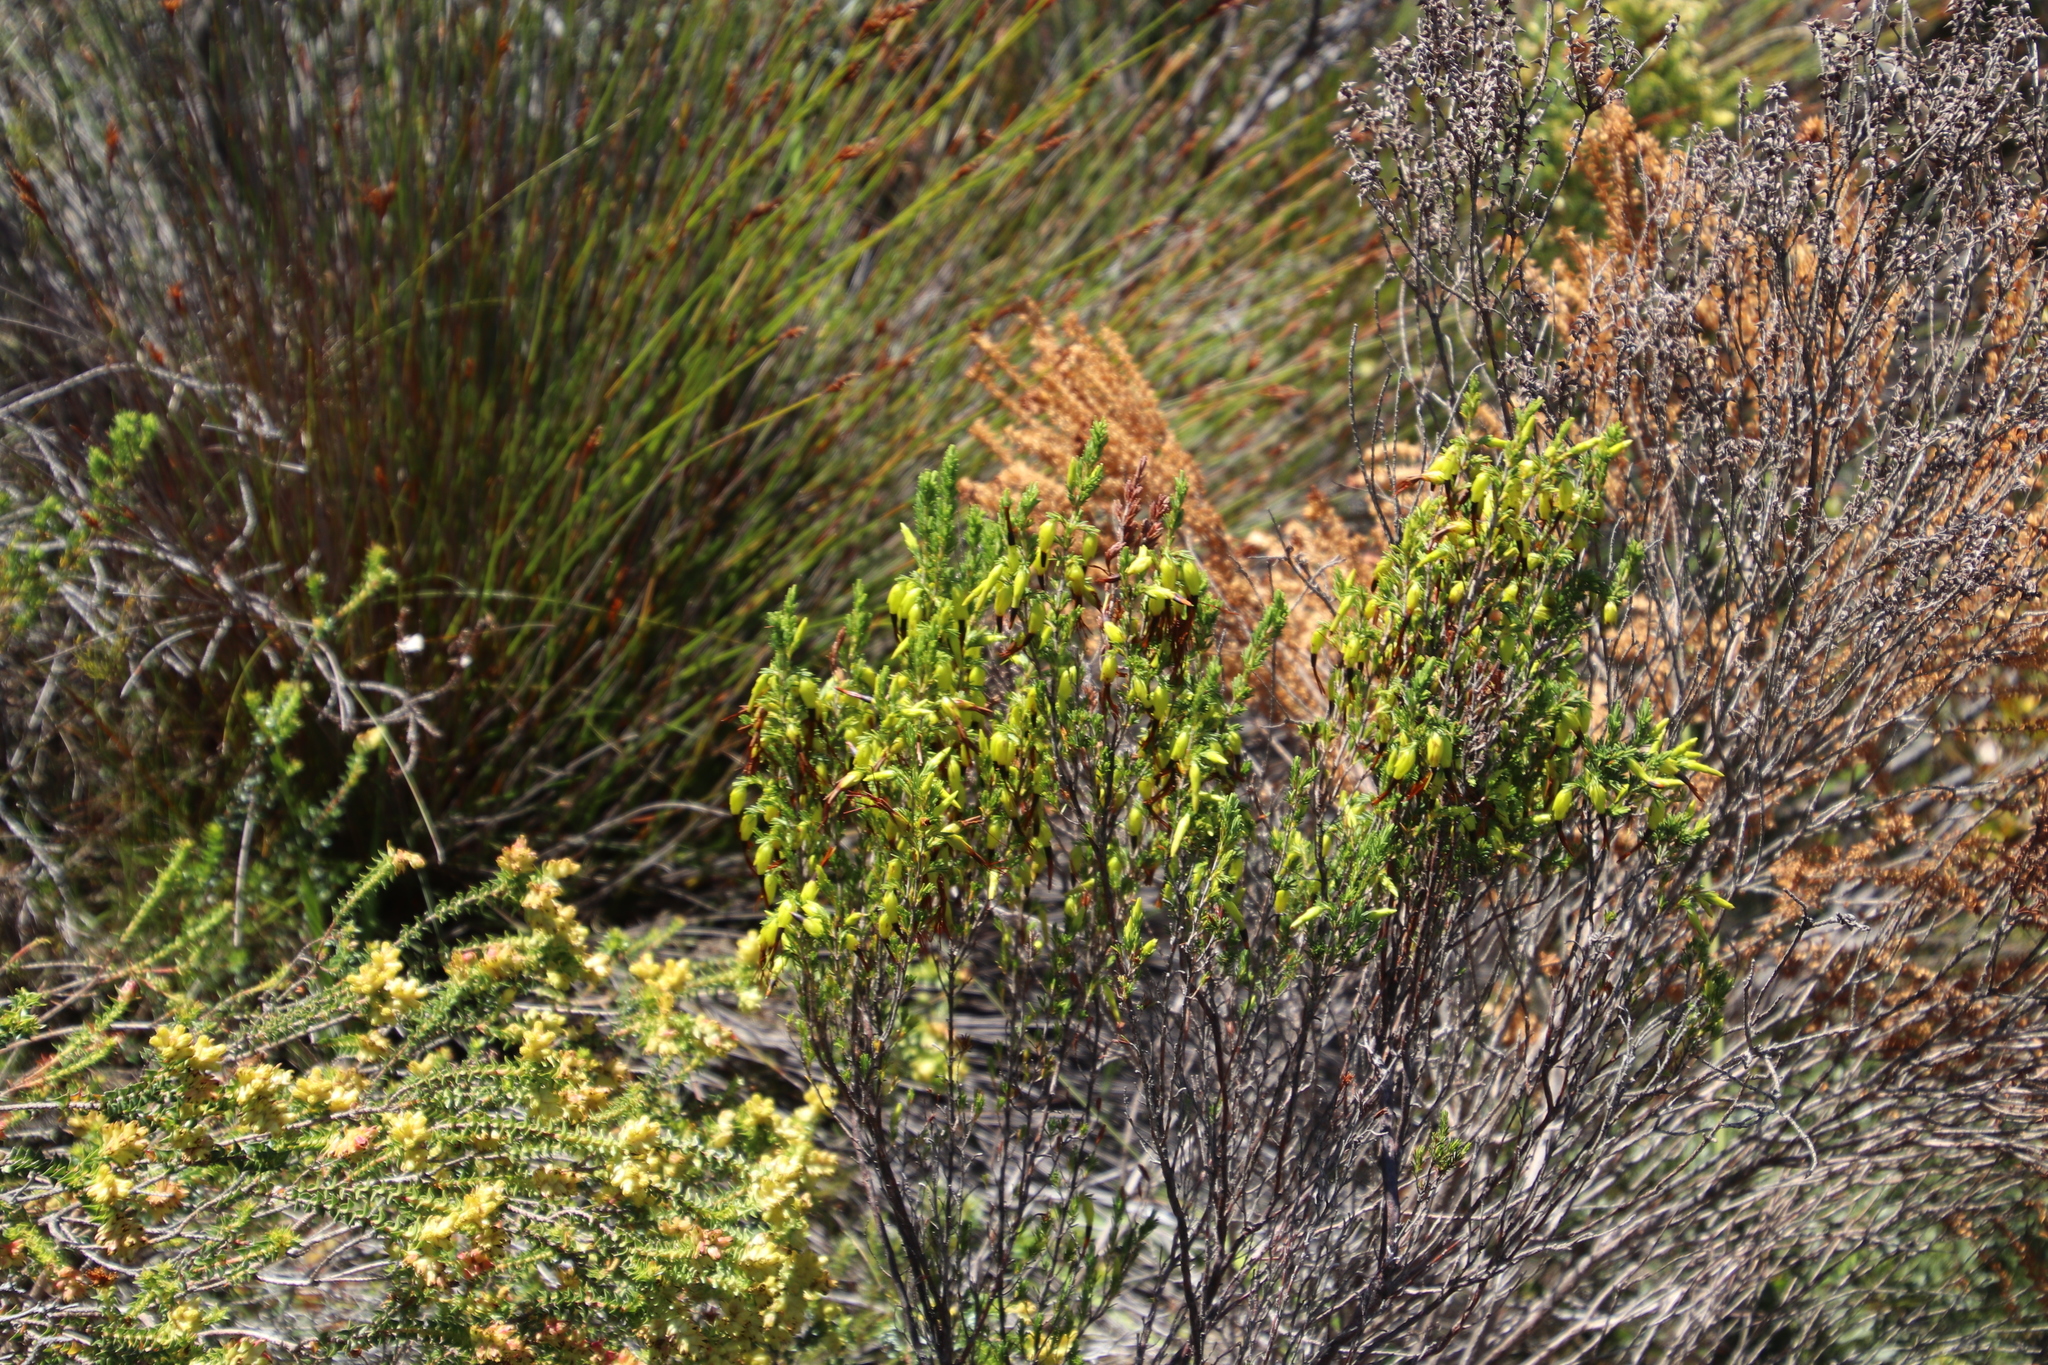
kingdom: Plantae
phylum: Tracheophyta
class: Magnoliopsida
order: Ericales
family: Ericaceae
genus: Erica
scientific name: Erica melastoma
